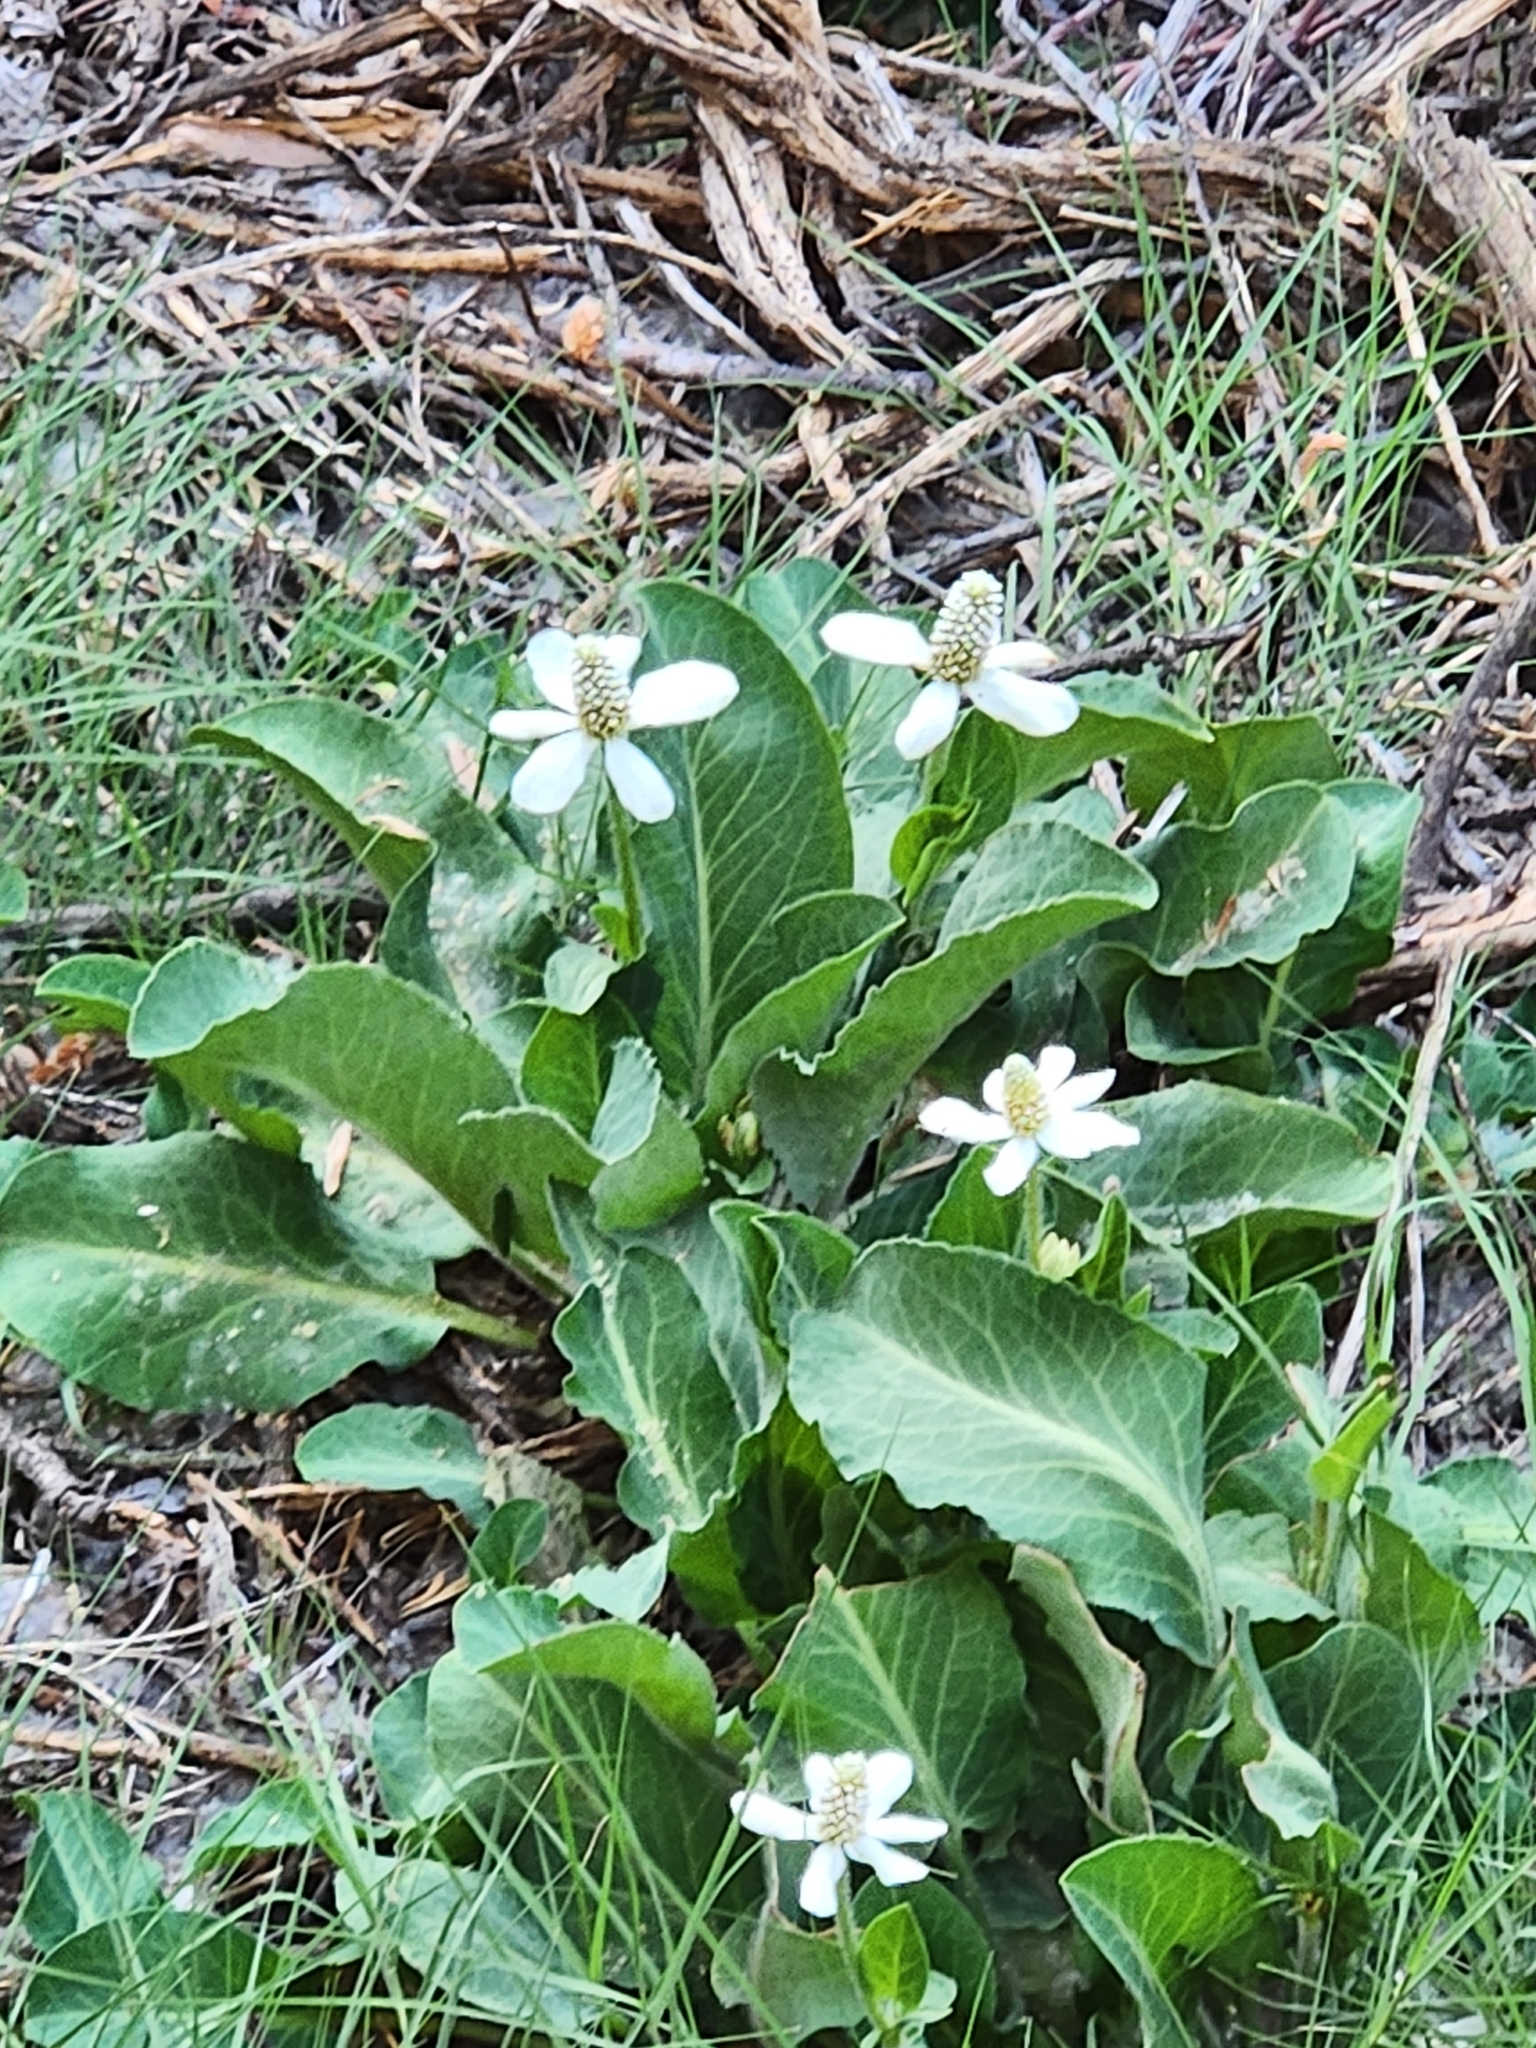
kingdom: Plantae
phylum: Tracheophyta
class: Magnoliopsida
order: Piperales
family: Saururaceae
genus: Anemopsis
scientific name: Anemopsis californica
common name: Apache-beads
